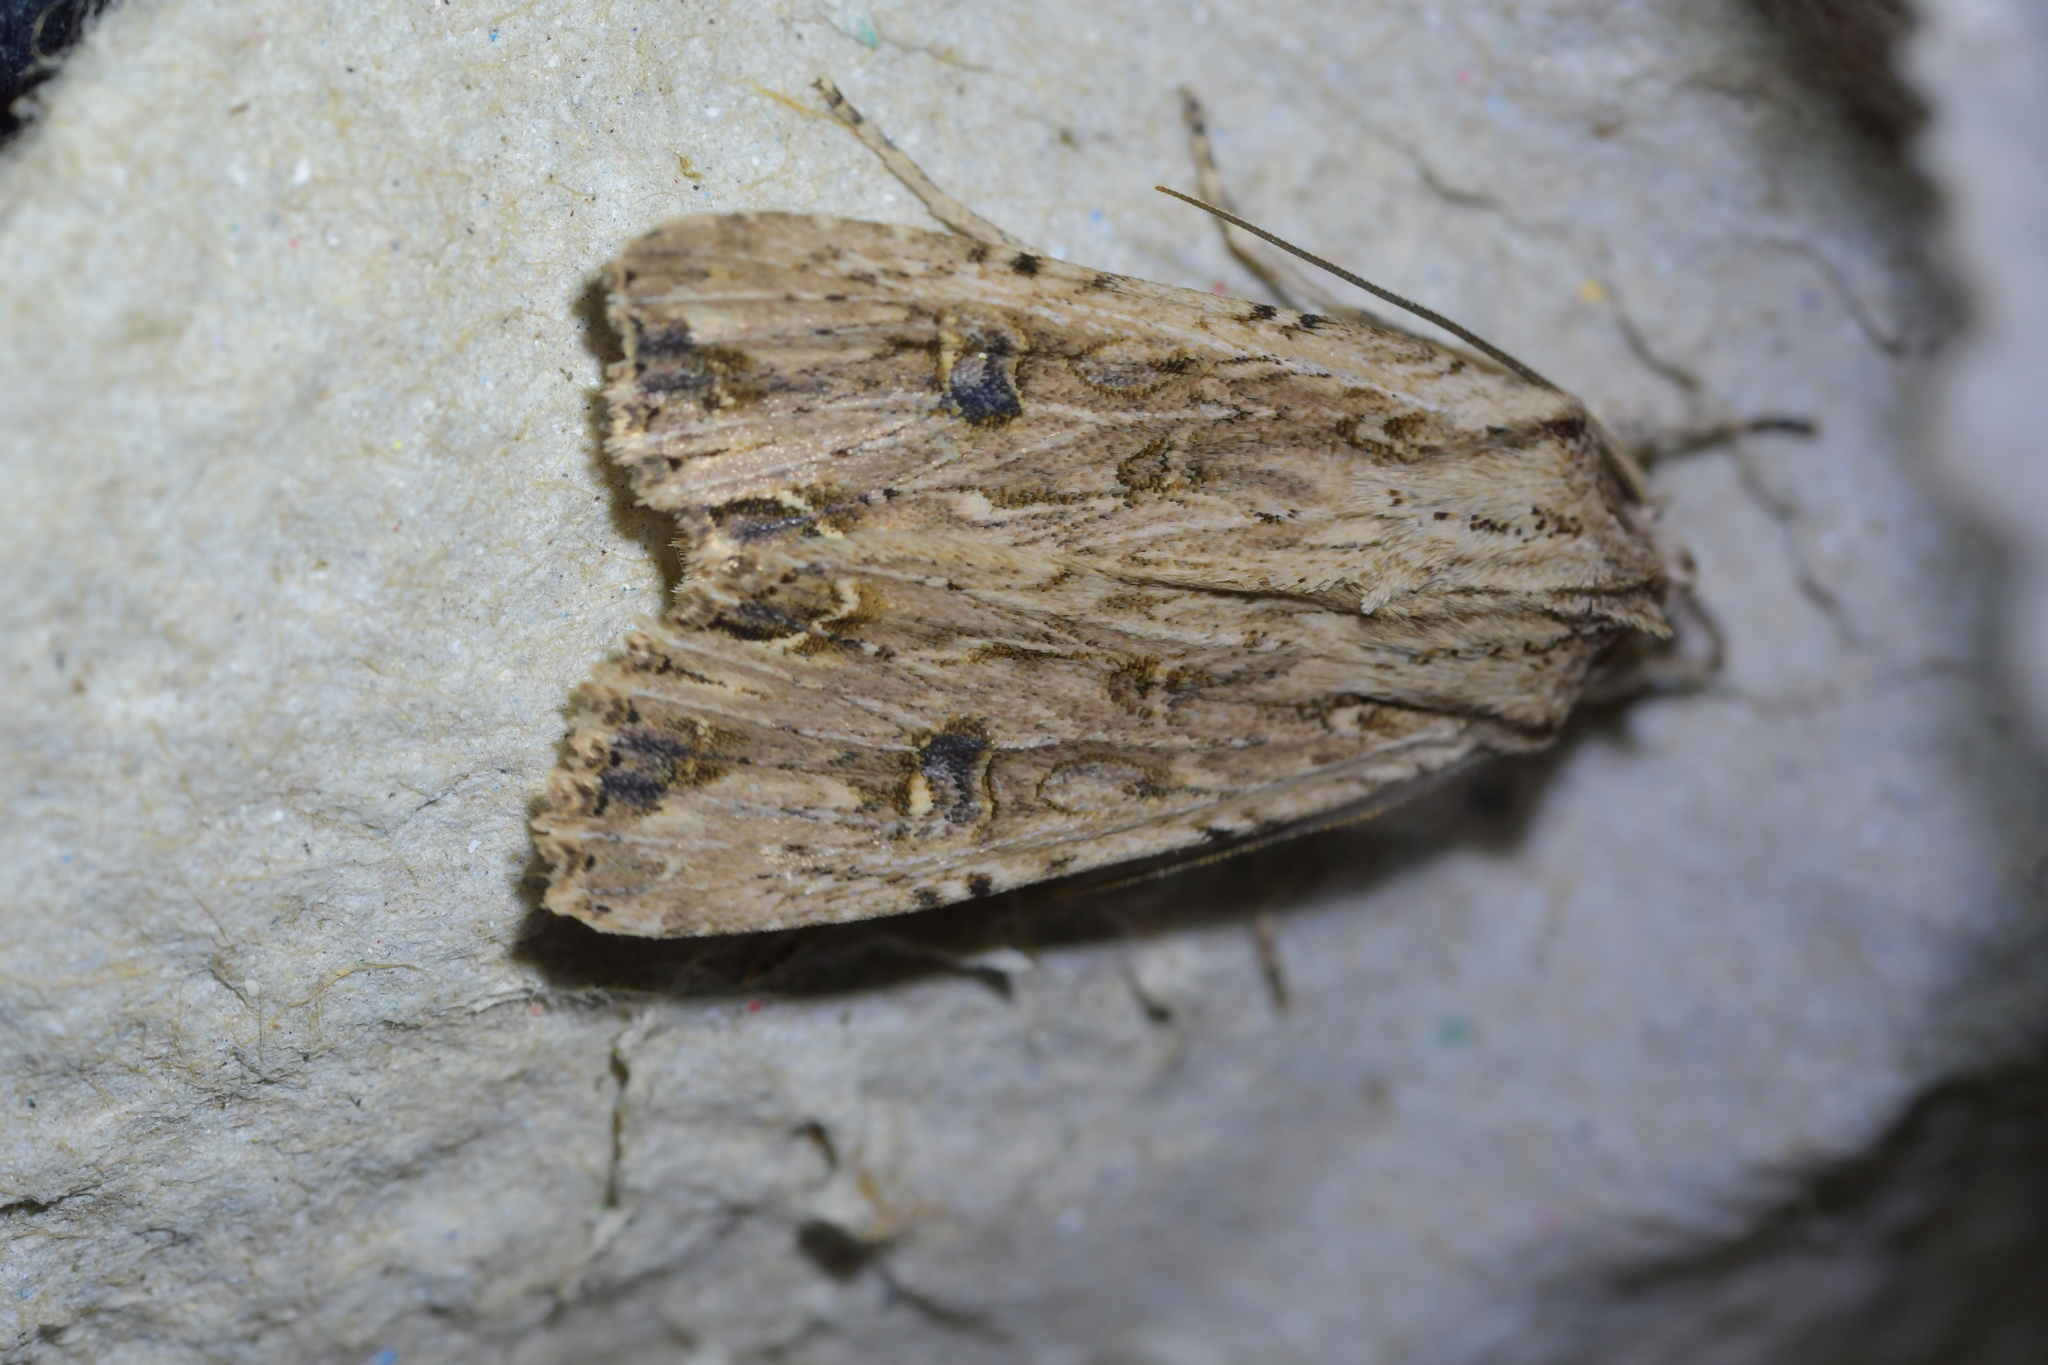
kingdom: Animalia
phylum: Arthropoda
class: Insecta
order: Lepidoptera
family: Noctuidae
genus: Ichneutica
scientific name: Ichneutica lignana
